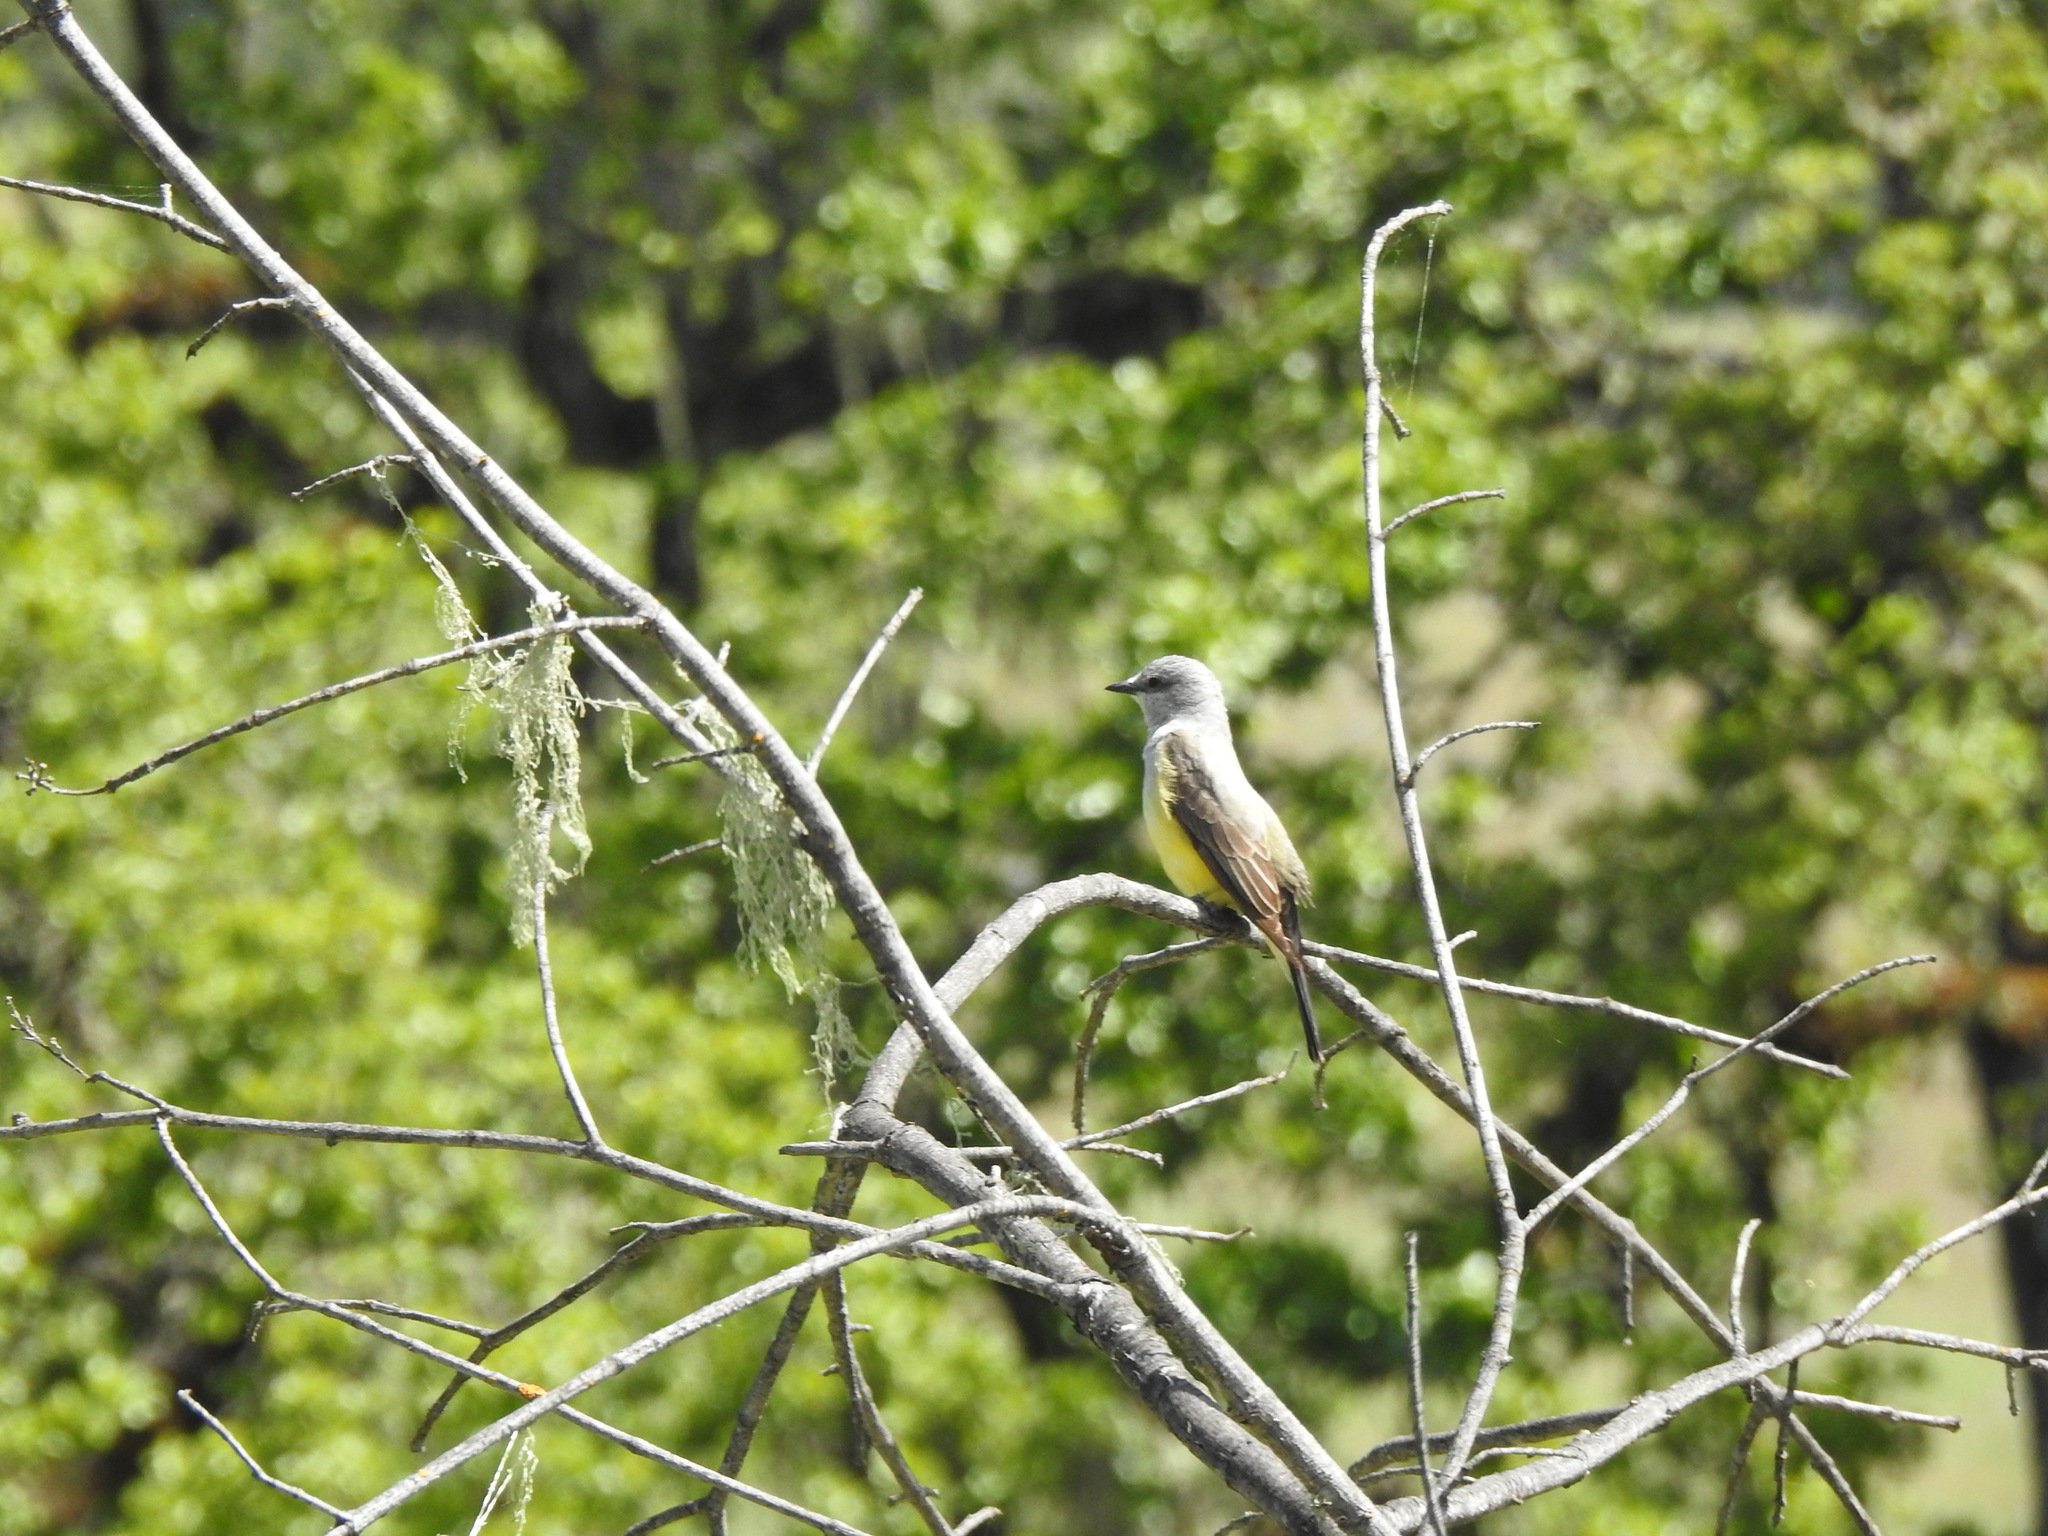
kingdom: Animalia
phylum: Chordata
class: Aves
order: Passeriformes
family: Tyrannidae
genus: Tyrannus
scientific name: Tyrannus verticalis
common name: Western kingbird
